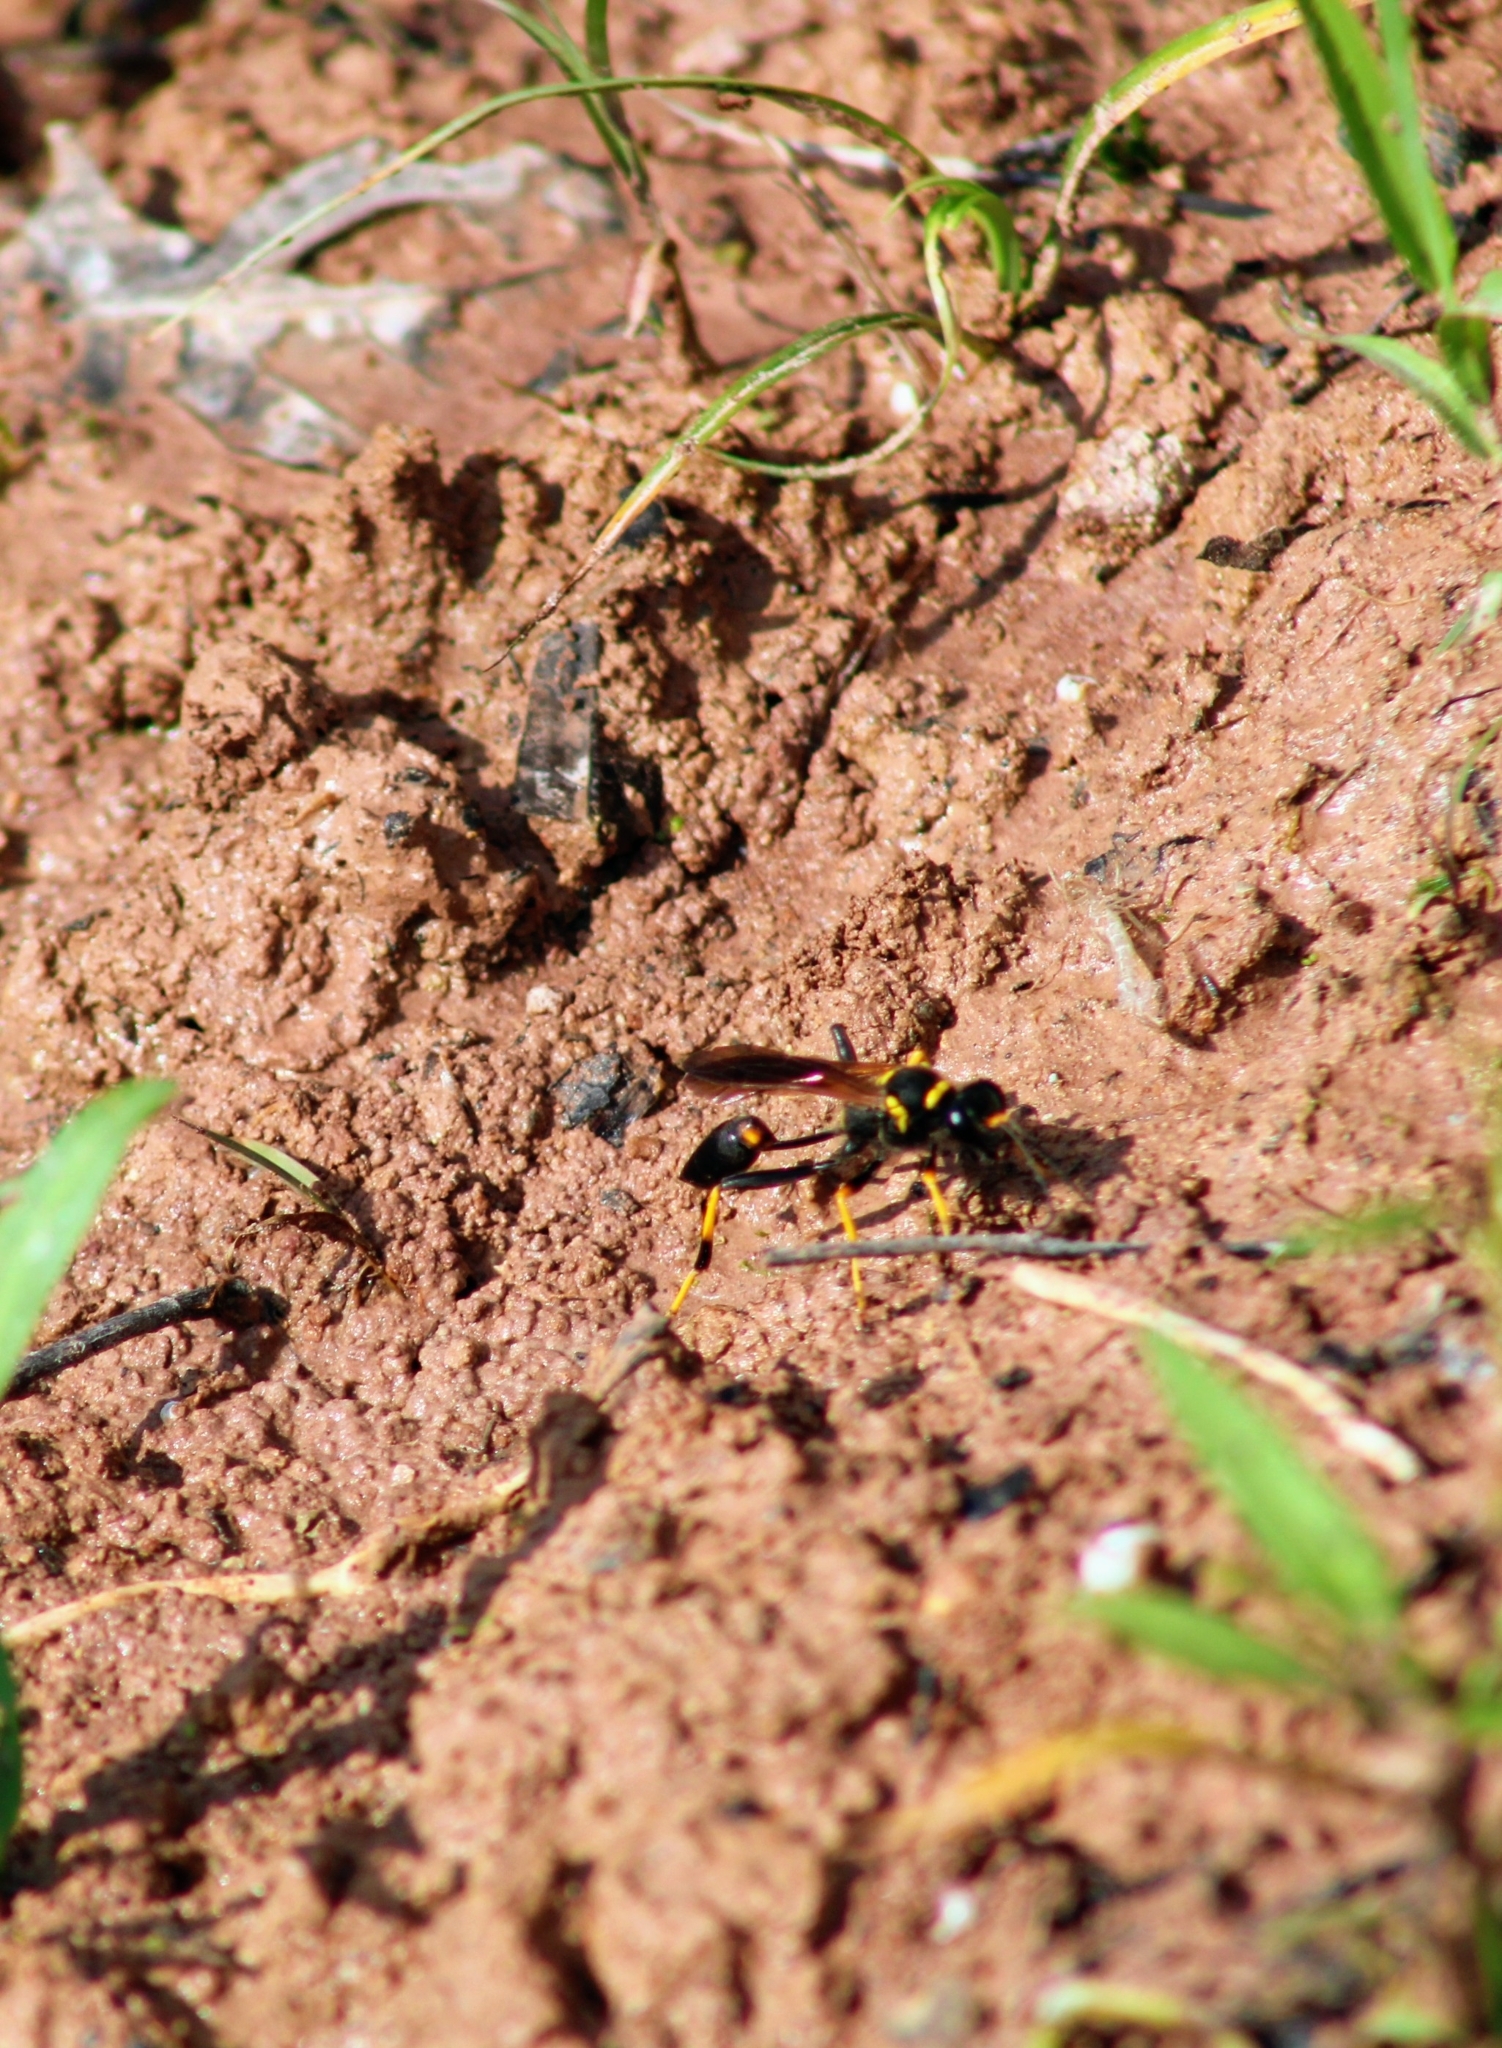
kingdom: Animalia
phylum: Arthropoda
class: Insecta
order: Hymenoptera
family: Sphecidae
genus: Sceliphron
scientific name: Sceliphron caementarium
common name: Mud dauber
